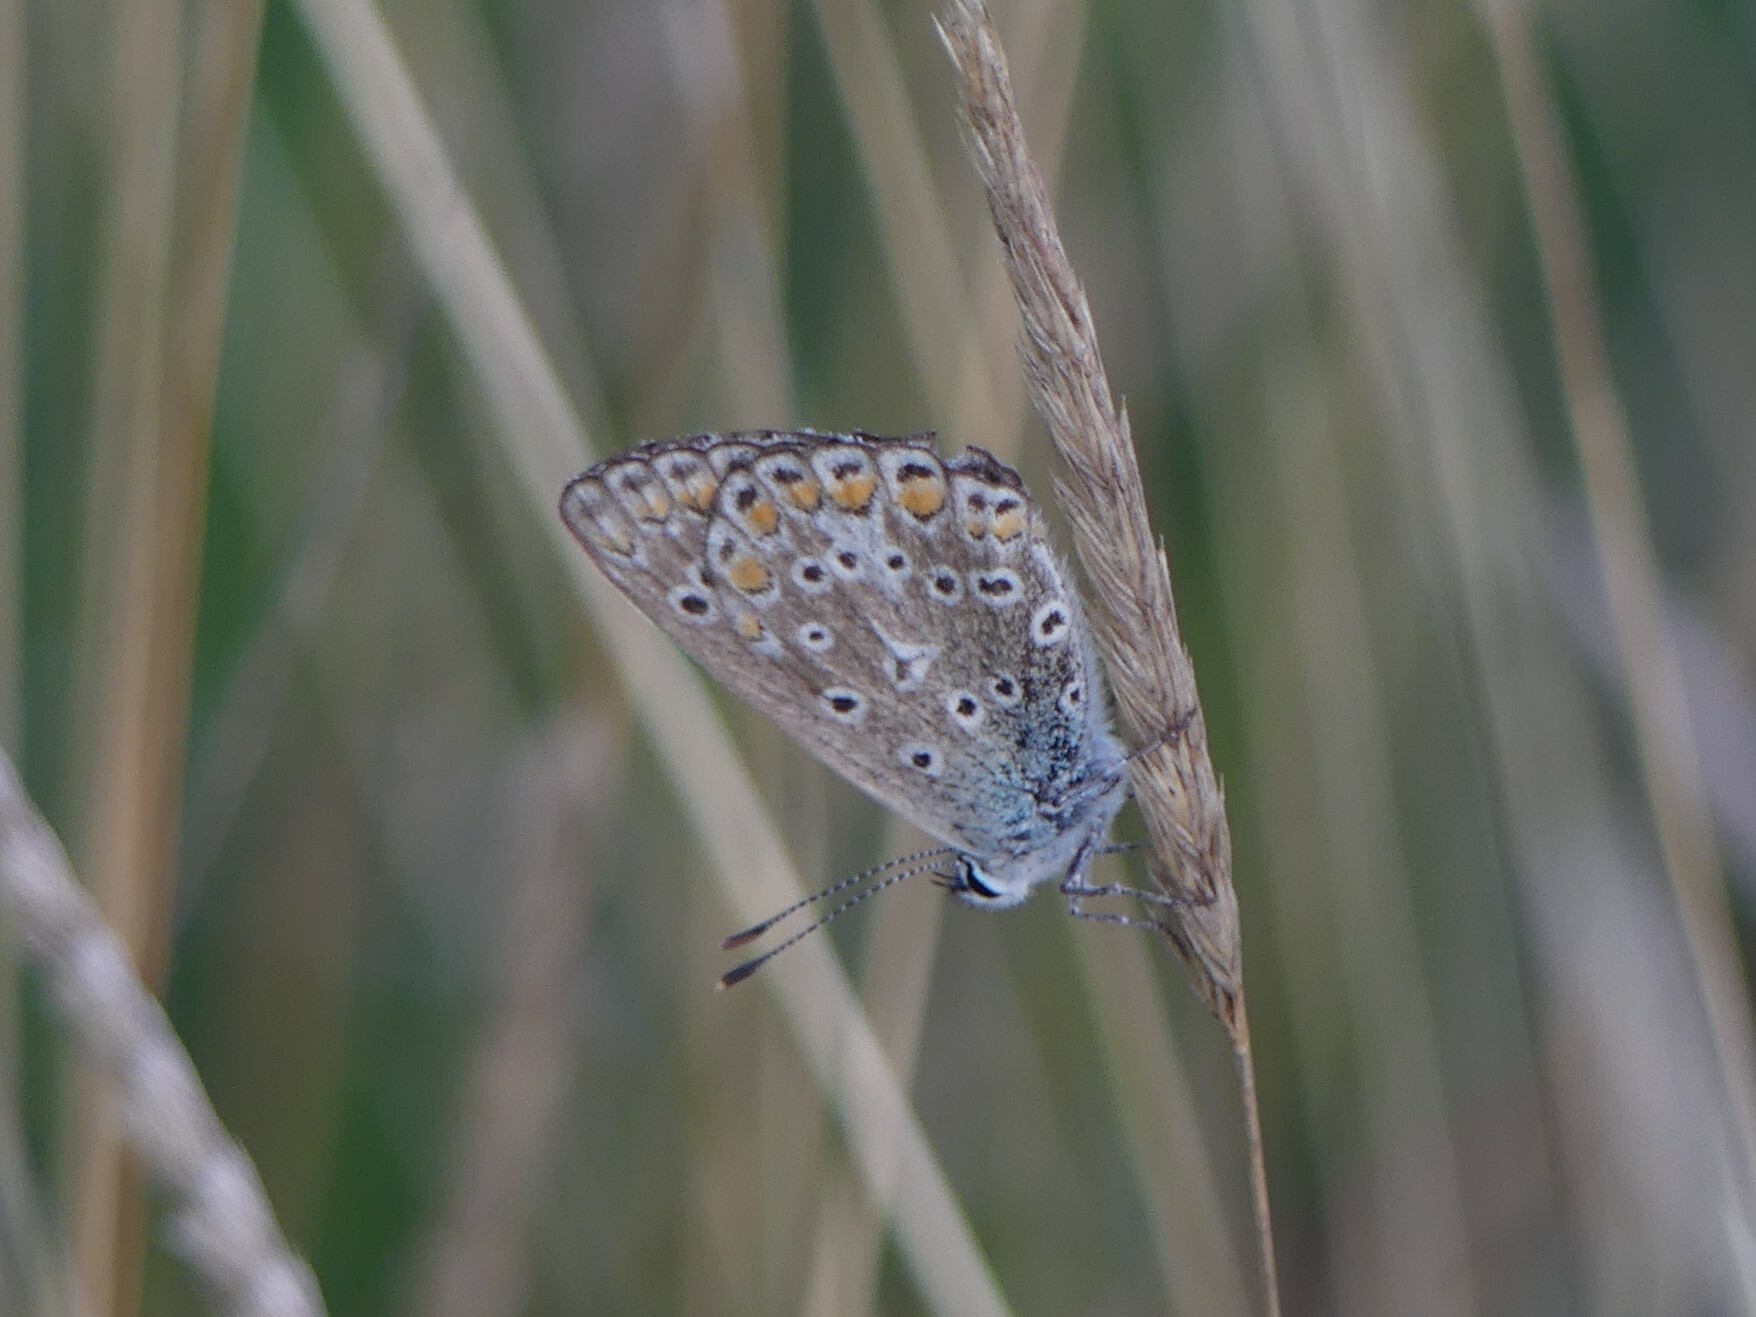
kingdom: Animalia
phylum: Arthropoda
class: Insecta
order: Lepidoptera
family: Lycaenidae
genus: Polyommatus
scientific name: Polyommatus icarus
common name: Common blue
